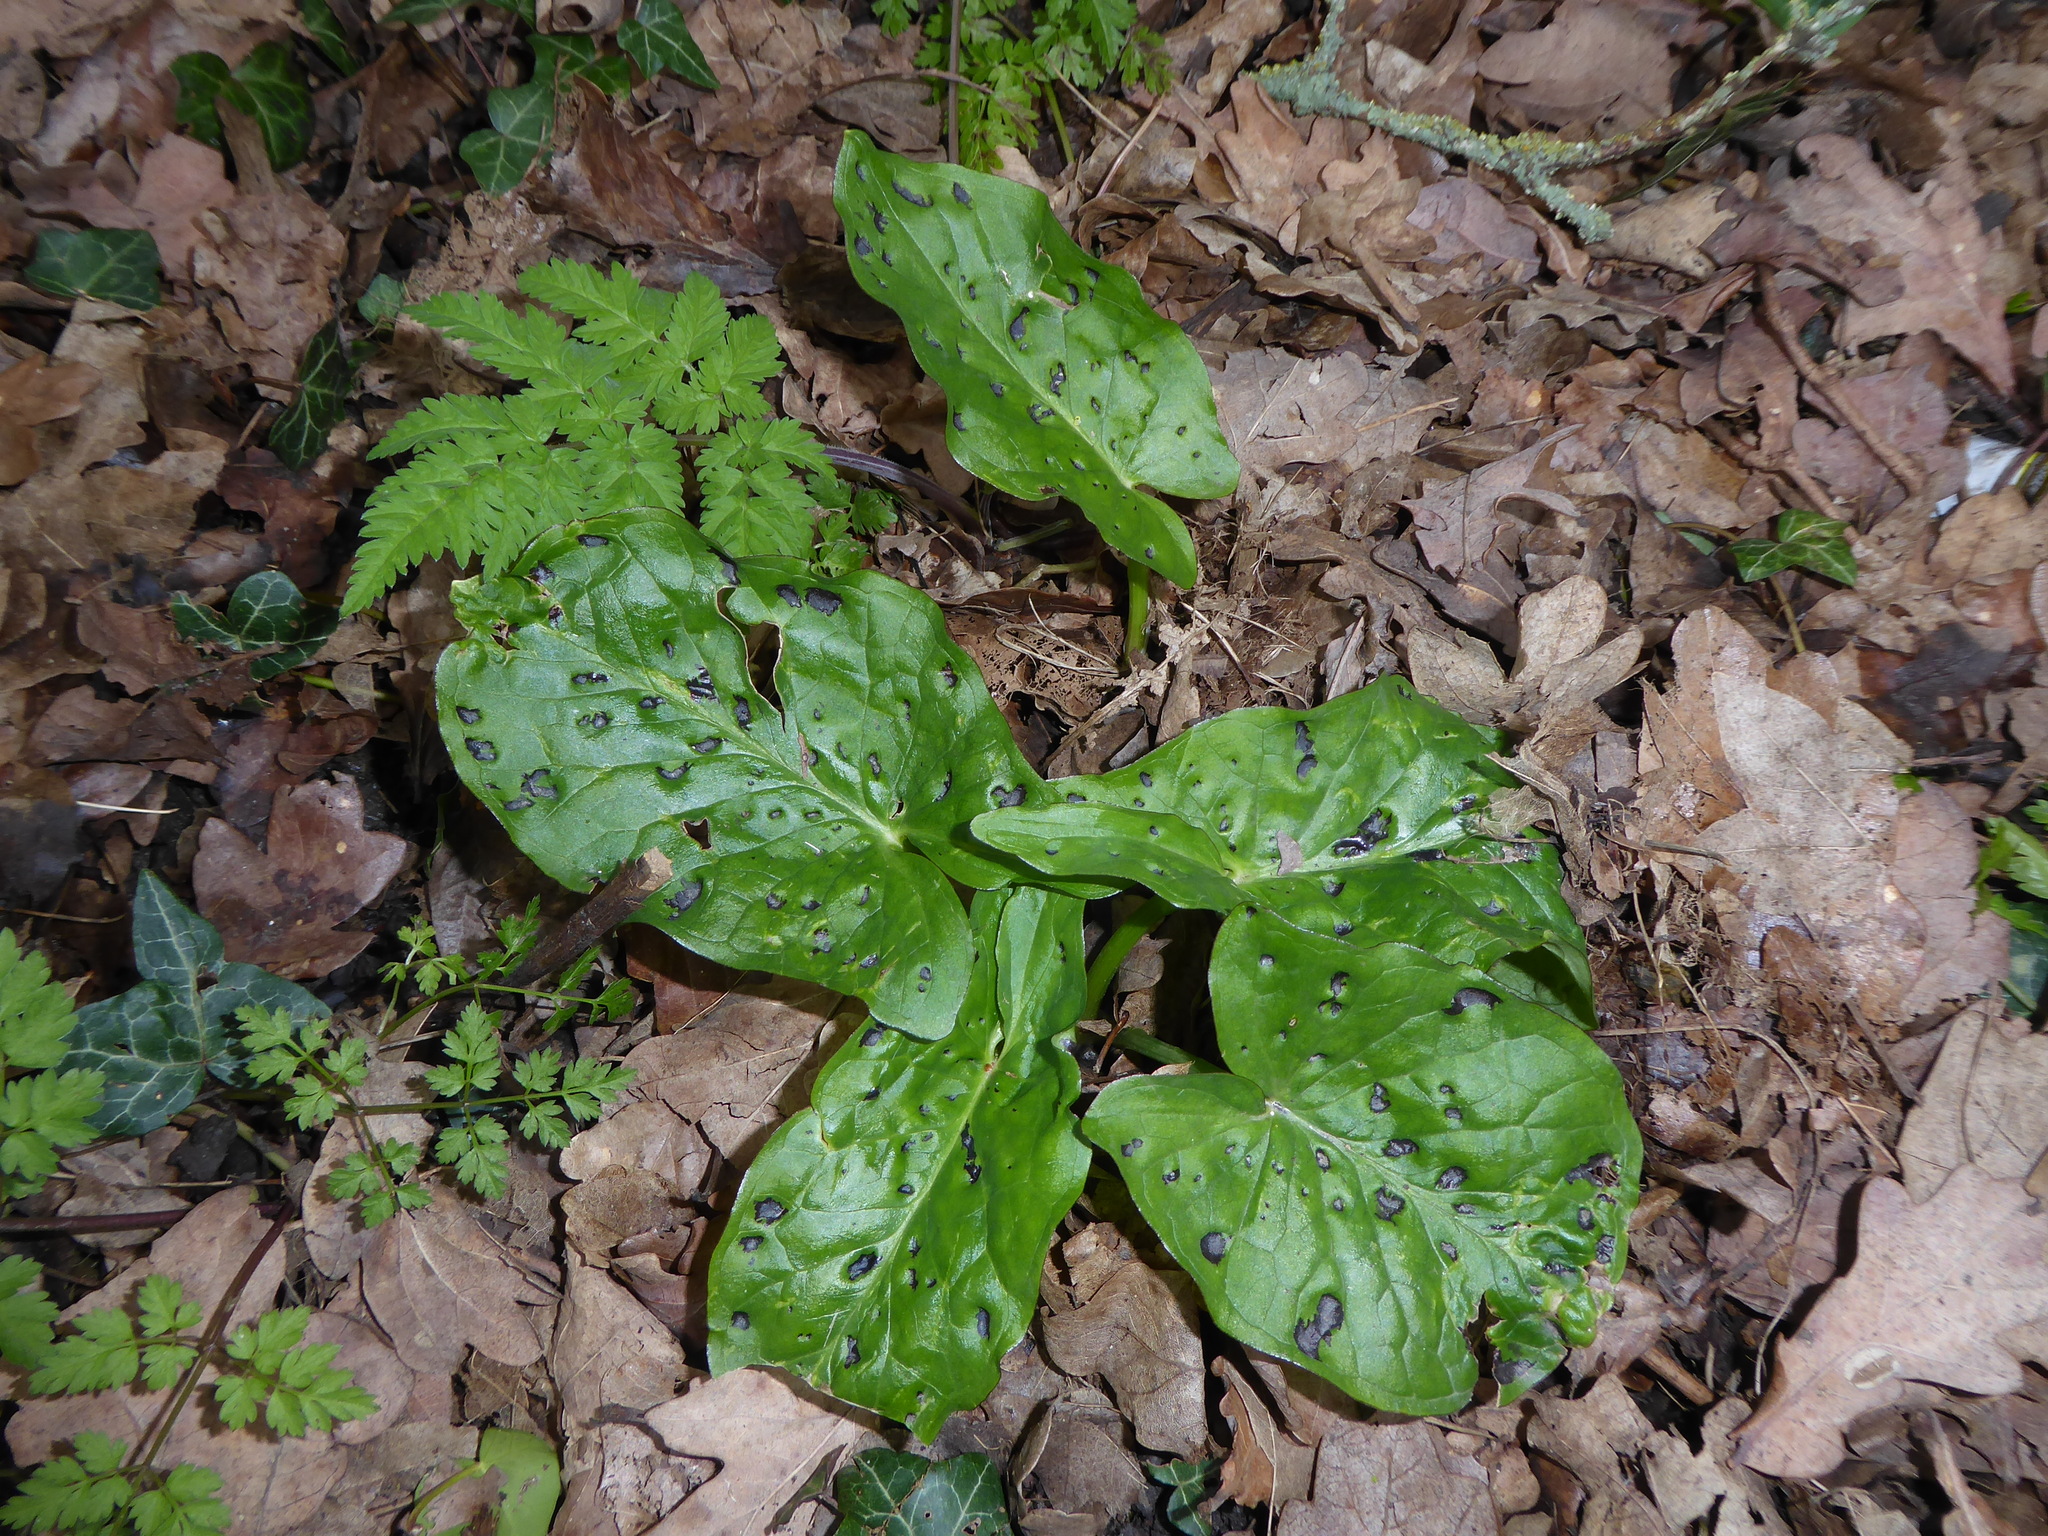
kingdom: Plantae
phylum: Tracheophyta
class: Liliopsida
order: Alismatales
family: Araceae
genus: Arum
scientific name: Arum maculatum
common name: Lords-and-ladies
